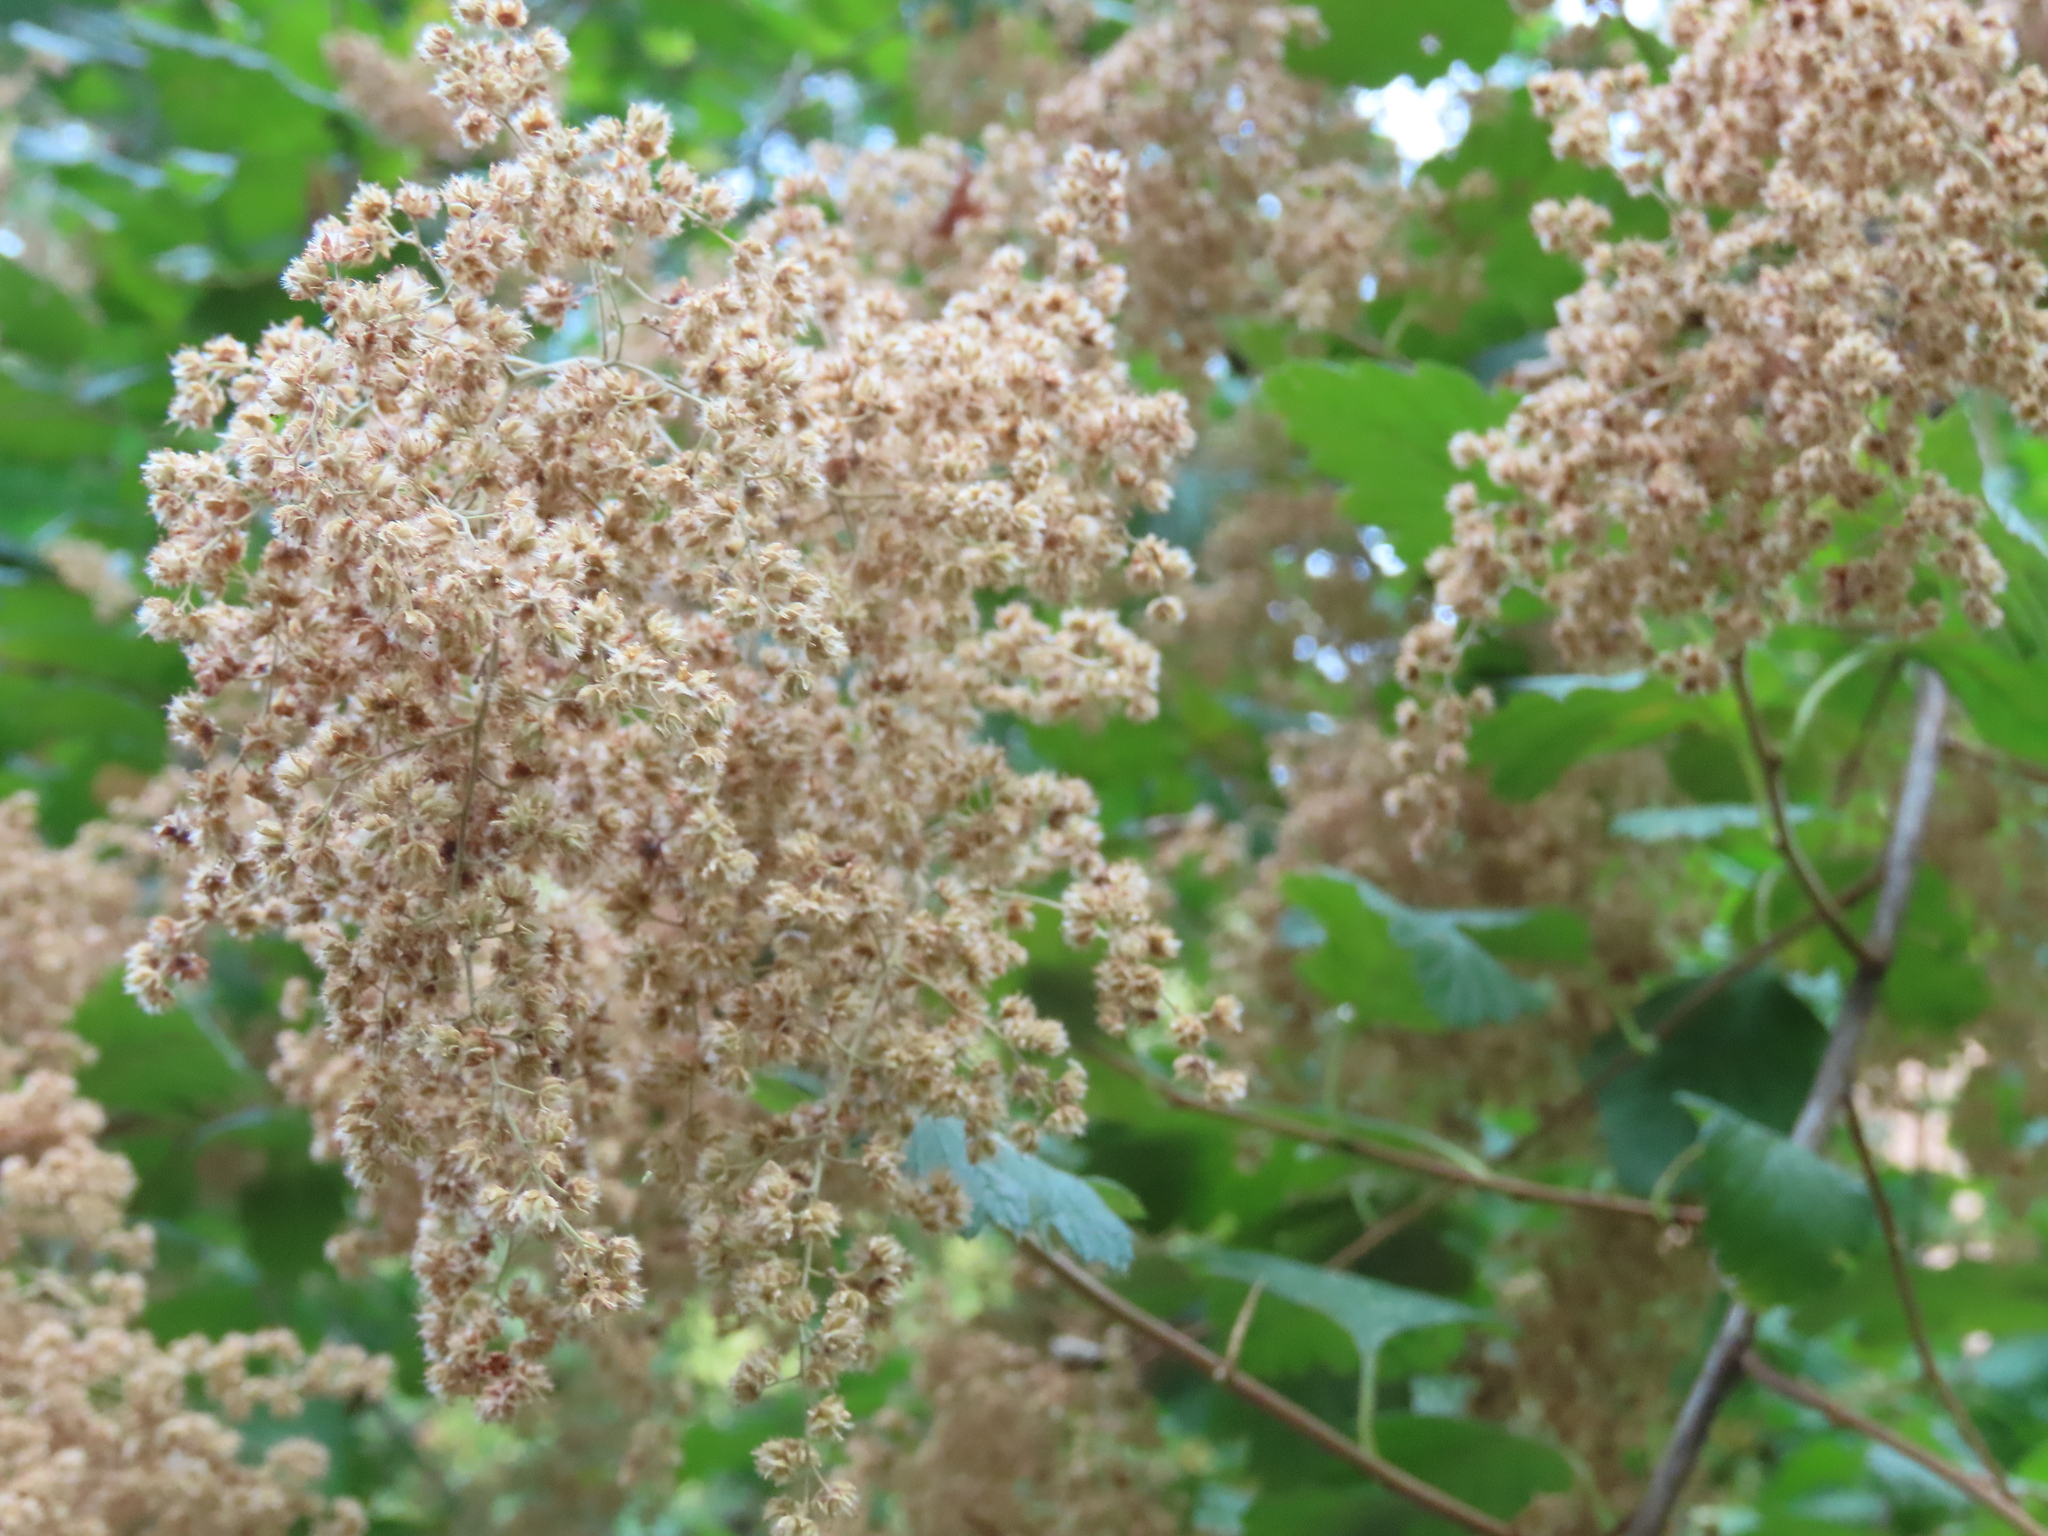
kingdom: Plantae
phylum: Tracheophyta
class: Magnoliopsida
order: Rosales
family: Rosaceae
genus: Holodiscus
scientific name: Holodiscus discolor
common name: Oceanspray
